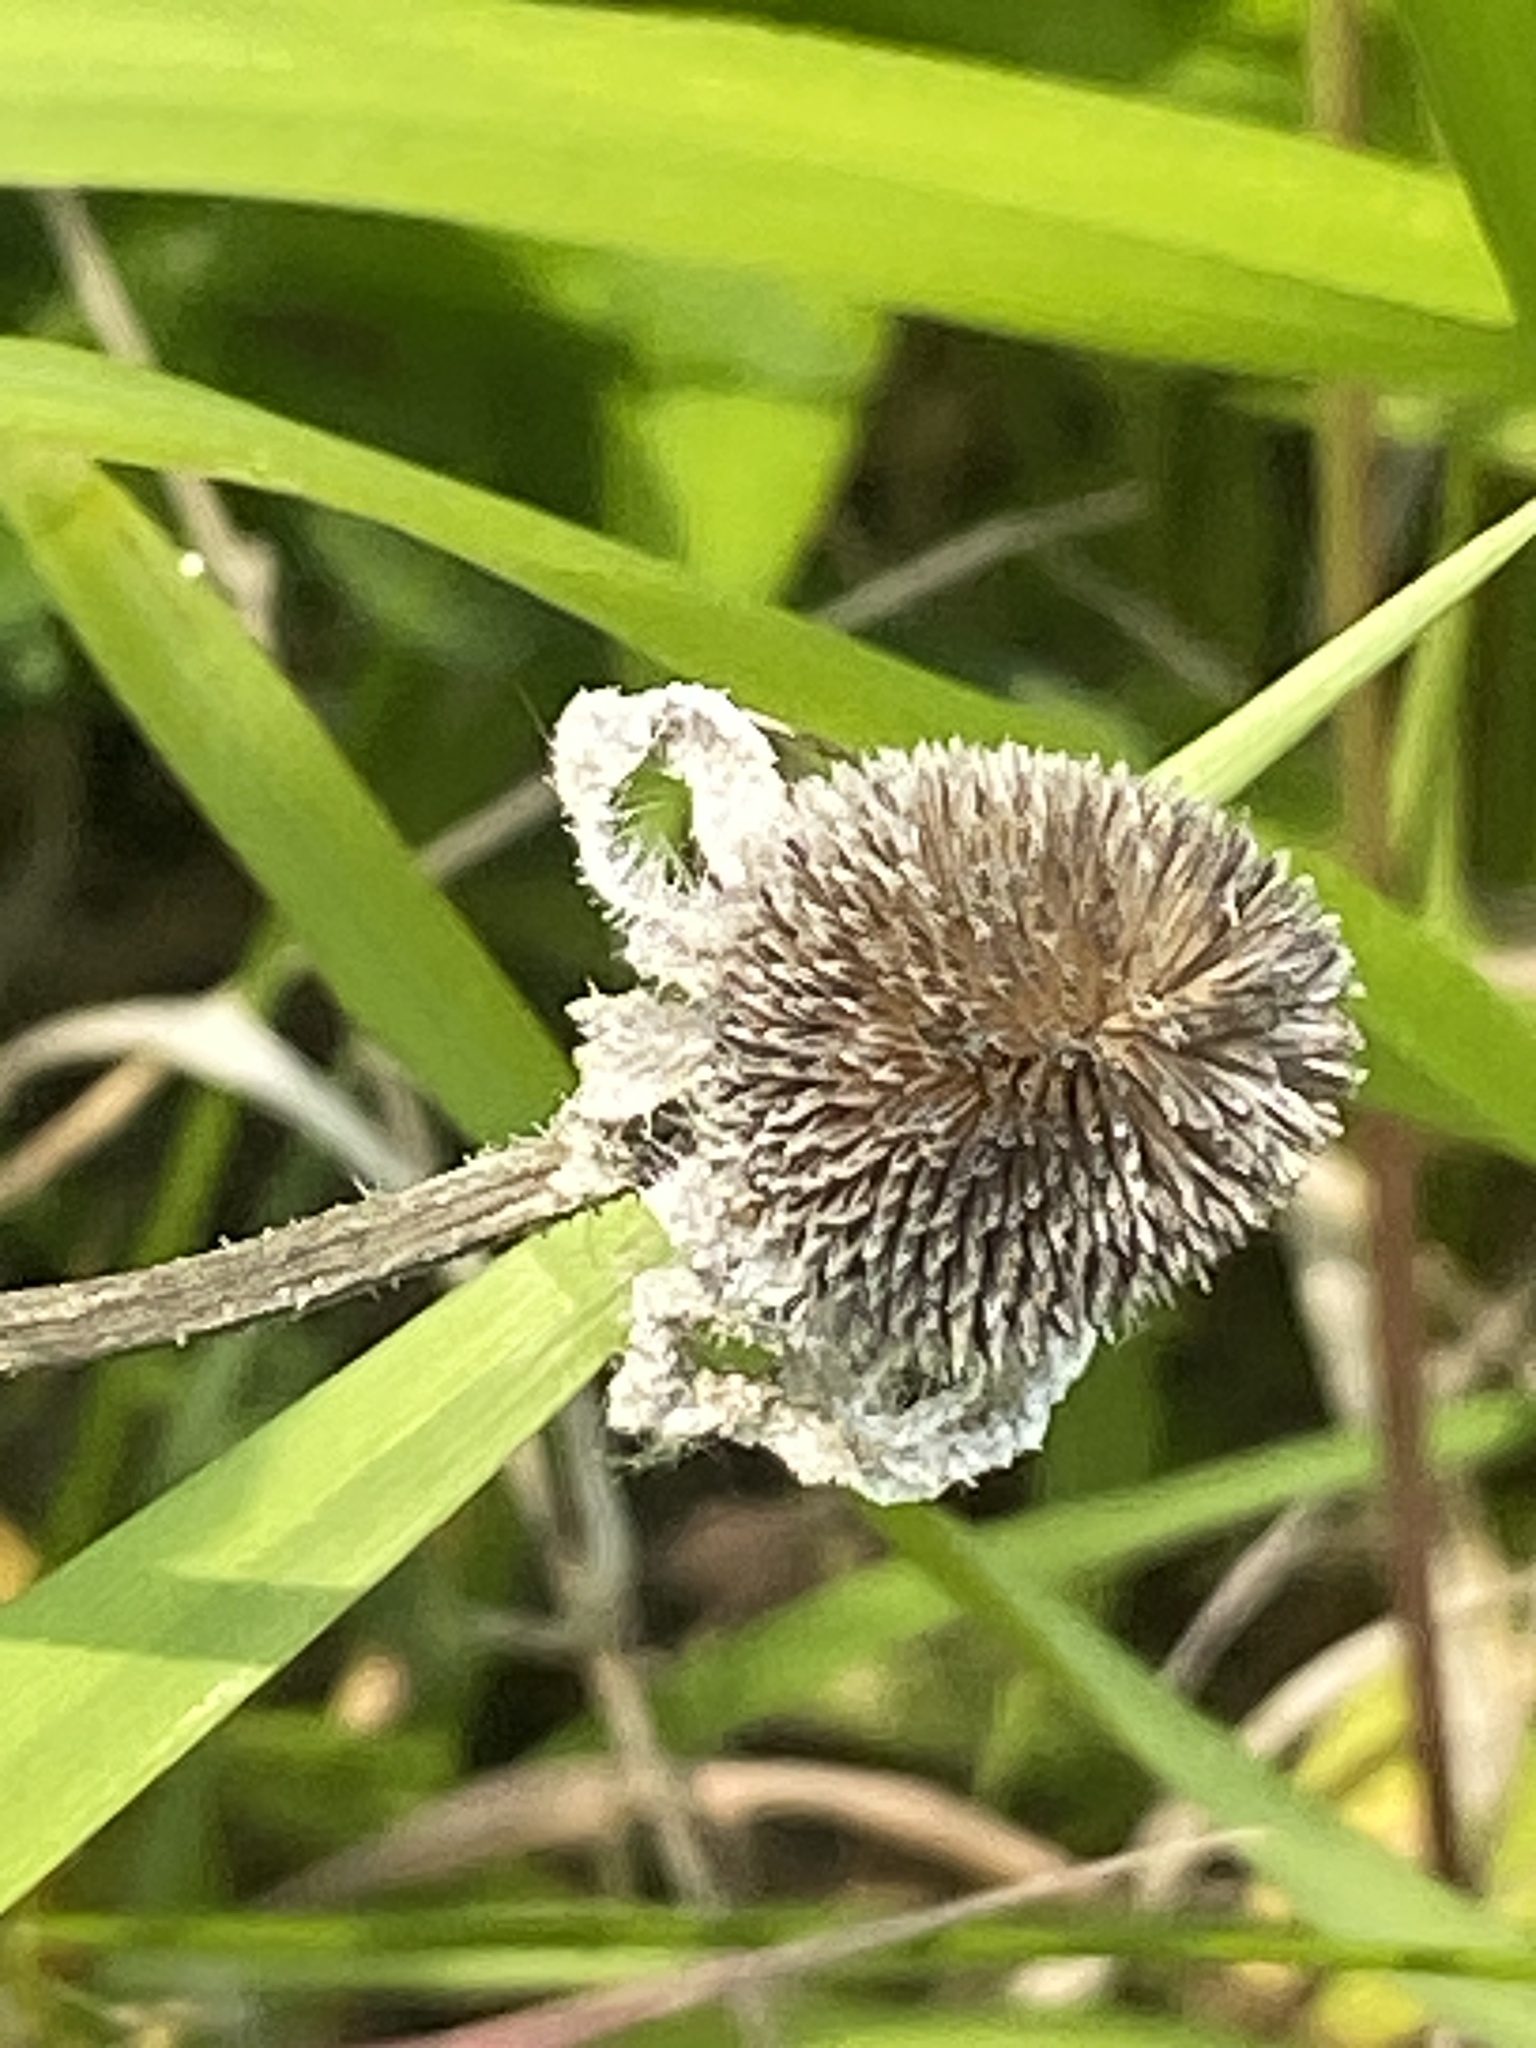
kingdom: Plantae
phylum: Tracheophyta
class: Magnoliopsida
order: Asterales
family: Asteraceae
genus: Rudbeckia
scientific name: Rudbeckia hirta
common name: Black-eyed-susan
